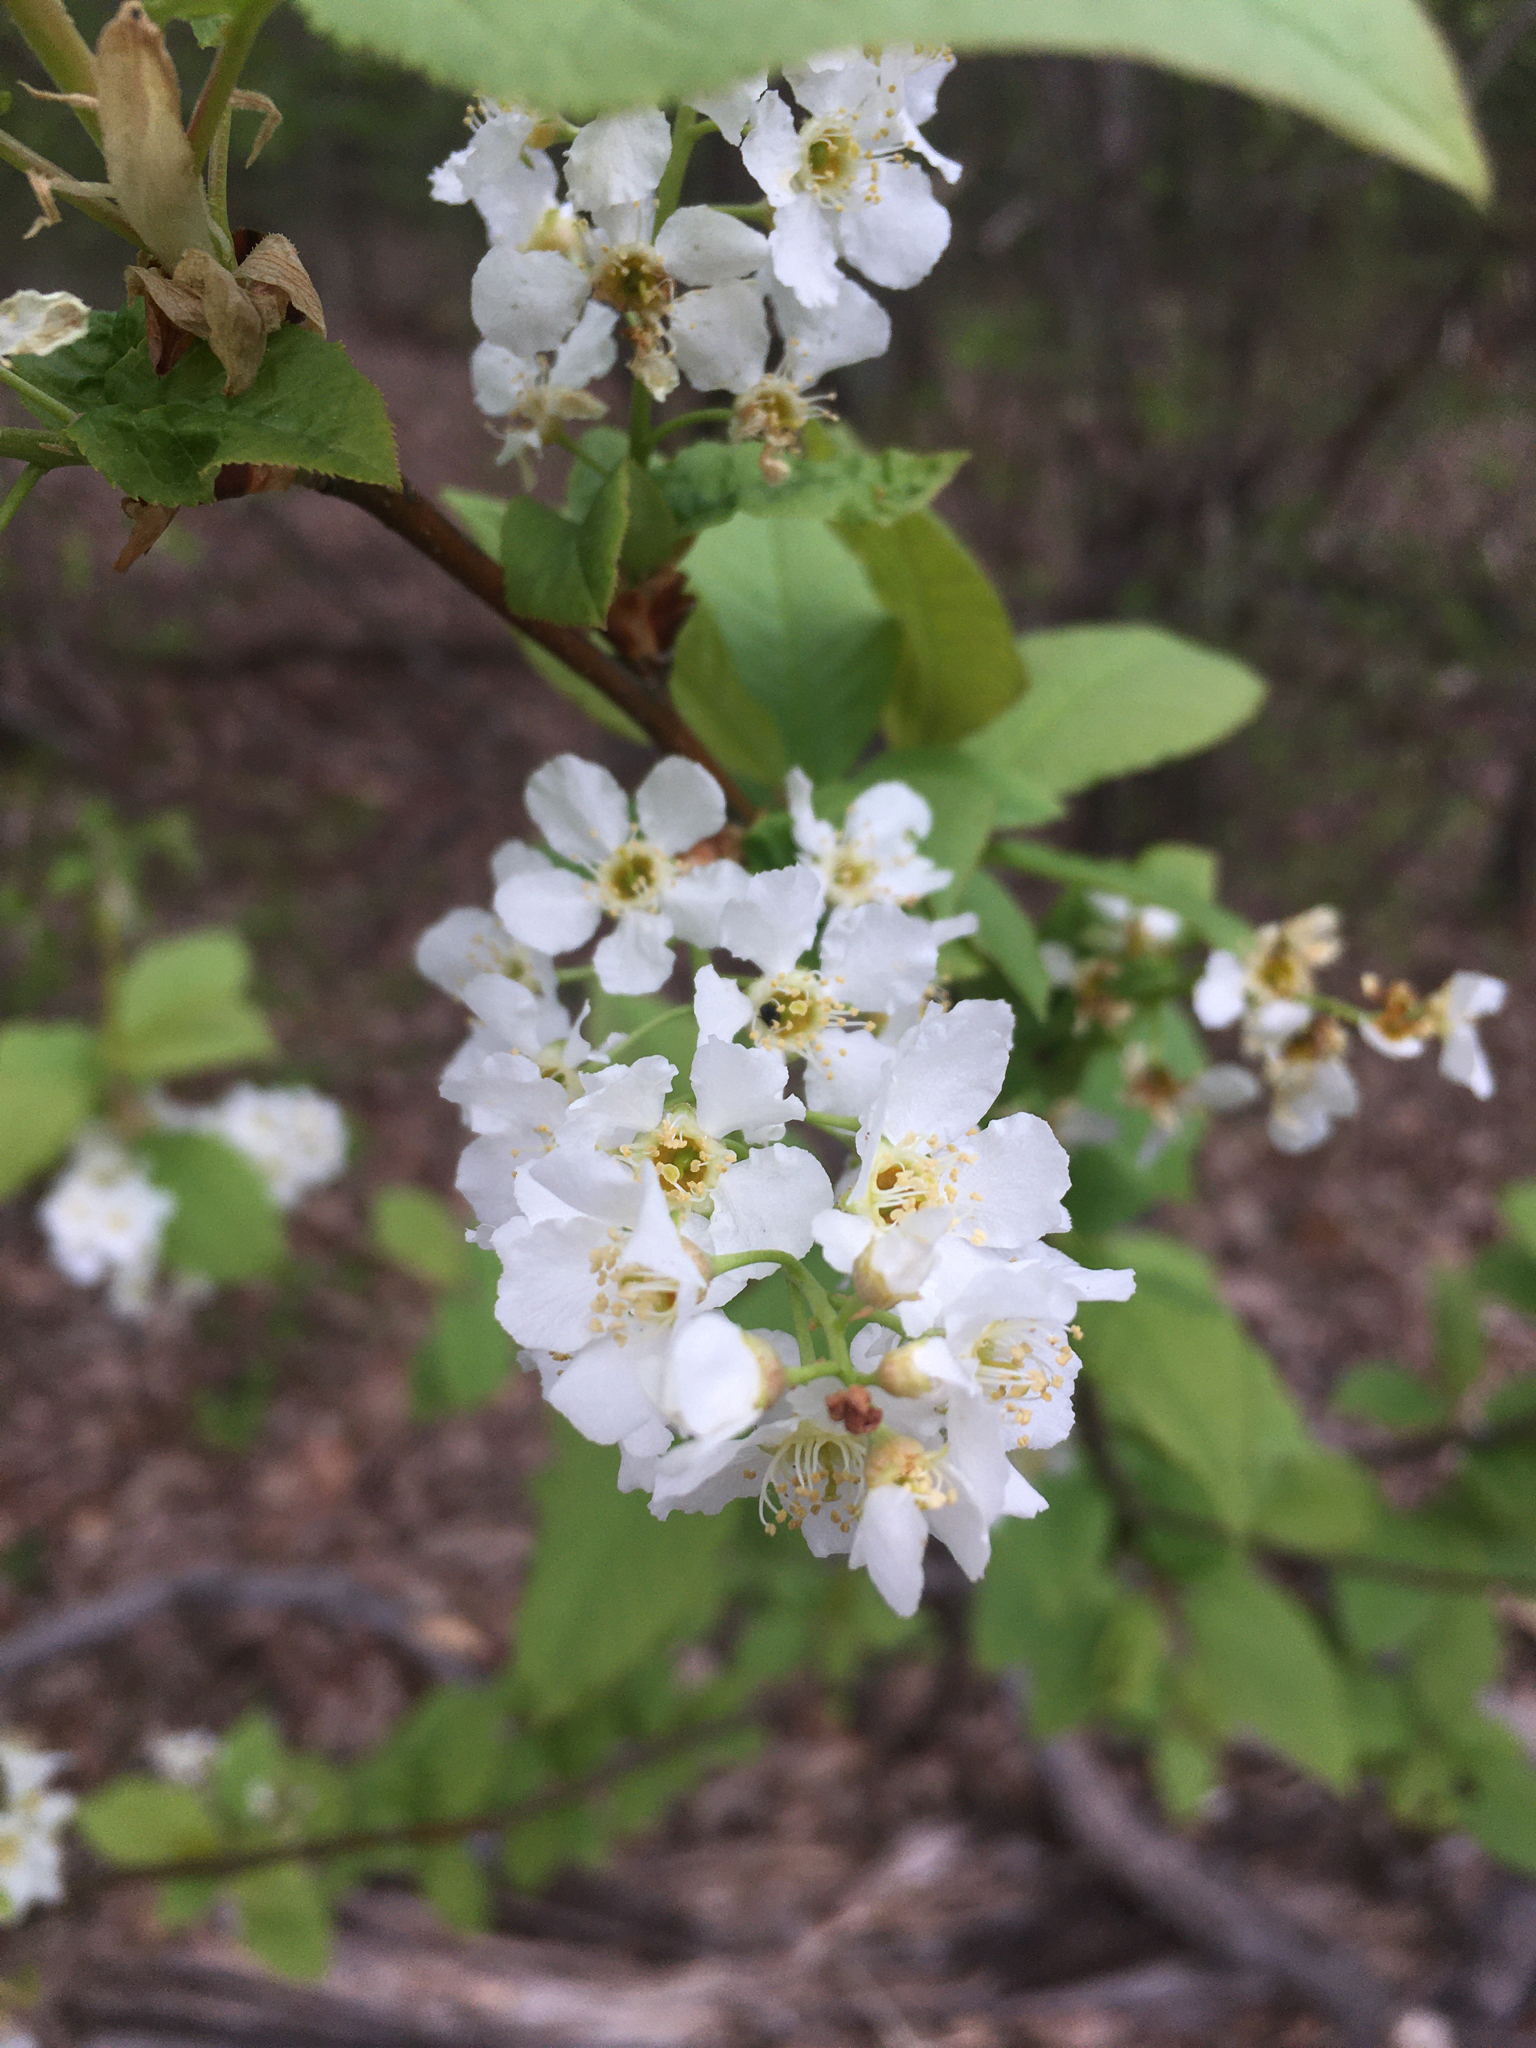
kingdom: Plantae
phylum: Tracheophyta
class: Magnoliopsida
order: Rosales
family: Rosaceae
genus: Prunus
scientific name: Prunus padus
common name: Bird cherry
